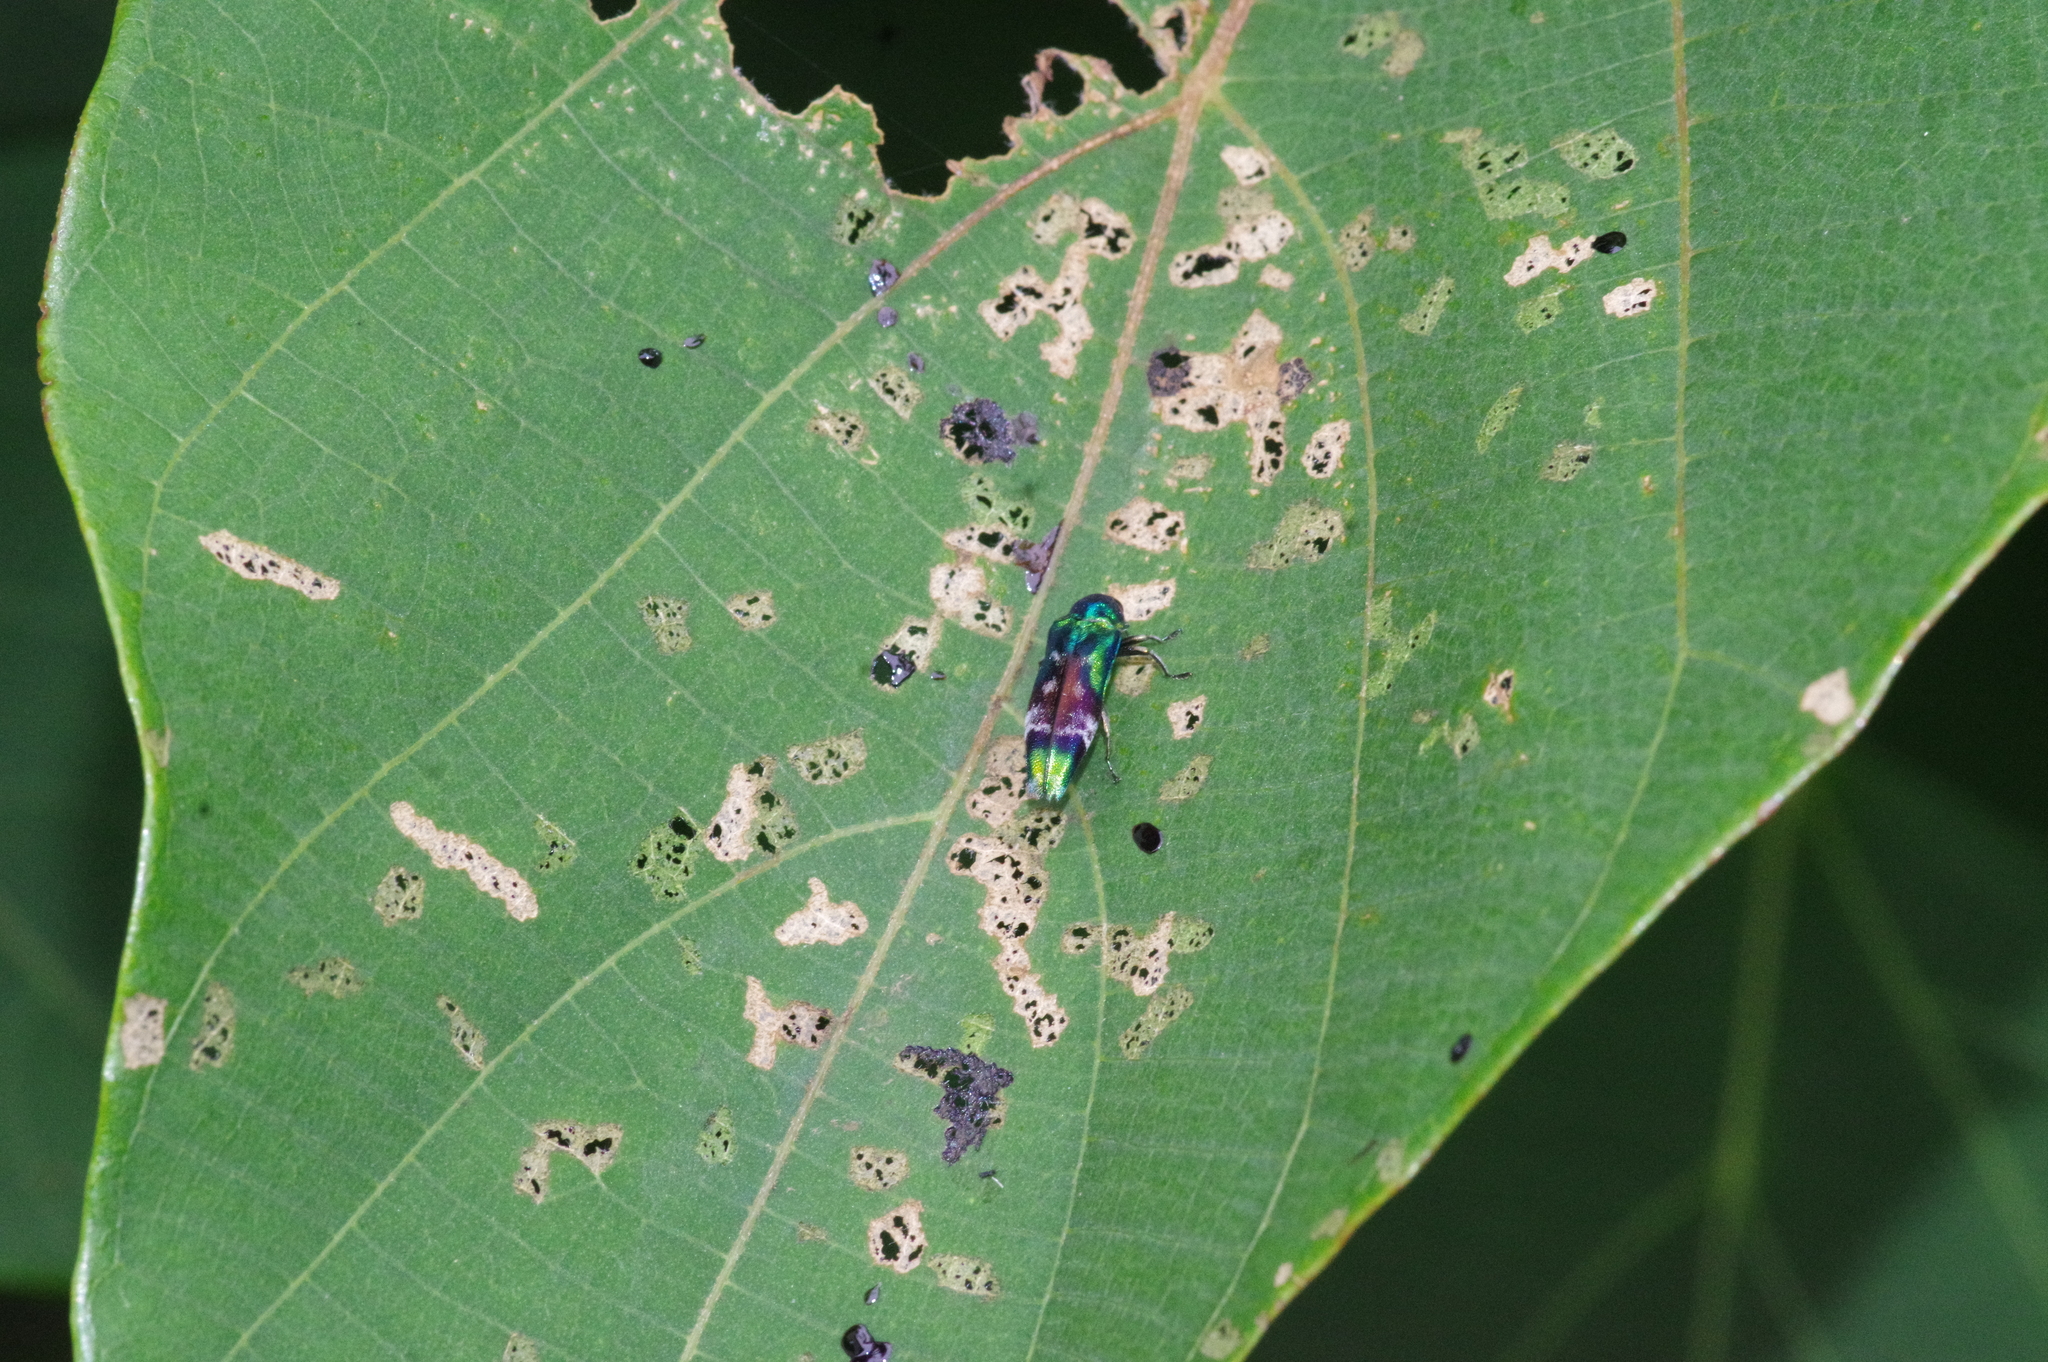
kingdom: Animalia
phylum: Arthropoda
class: Insecta
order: Coleoptera
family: Buprestidae
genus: Coraebus
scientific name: Coraebus hastanus
